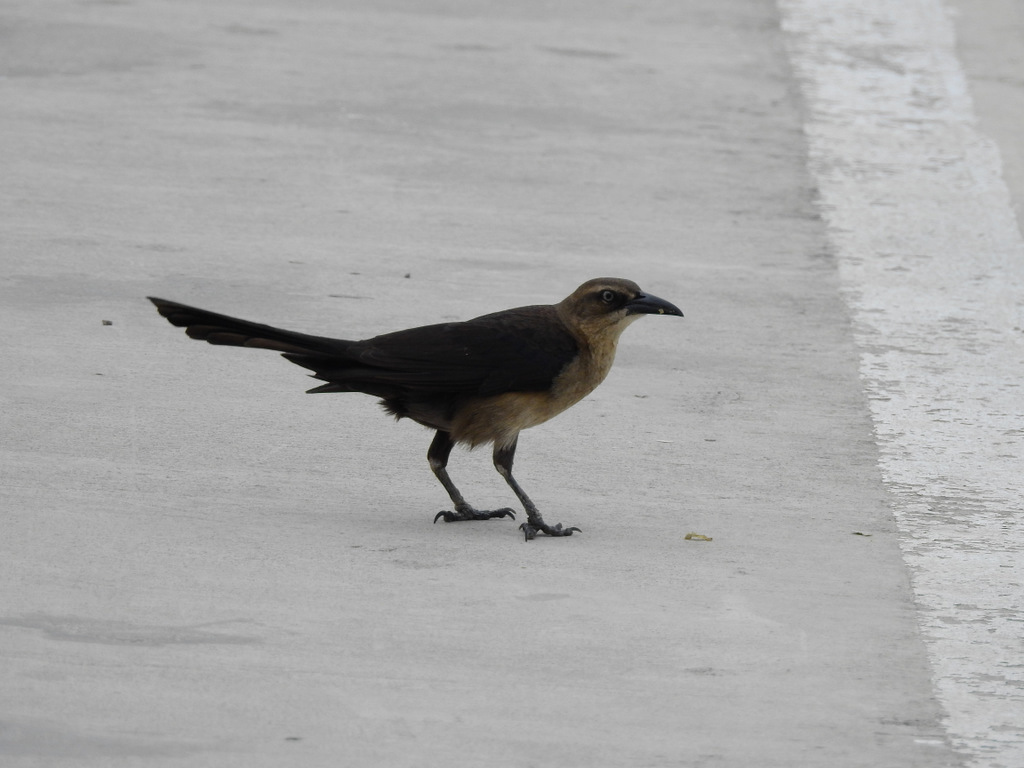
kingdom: Animalia
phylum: Chordata
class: Aves
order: Passeriformes
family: Icteridae
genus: Quiscalus
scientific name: Quiscalus mexicanus
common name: Great-tailed grackle
